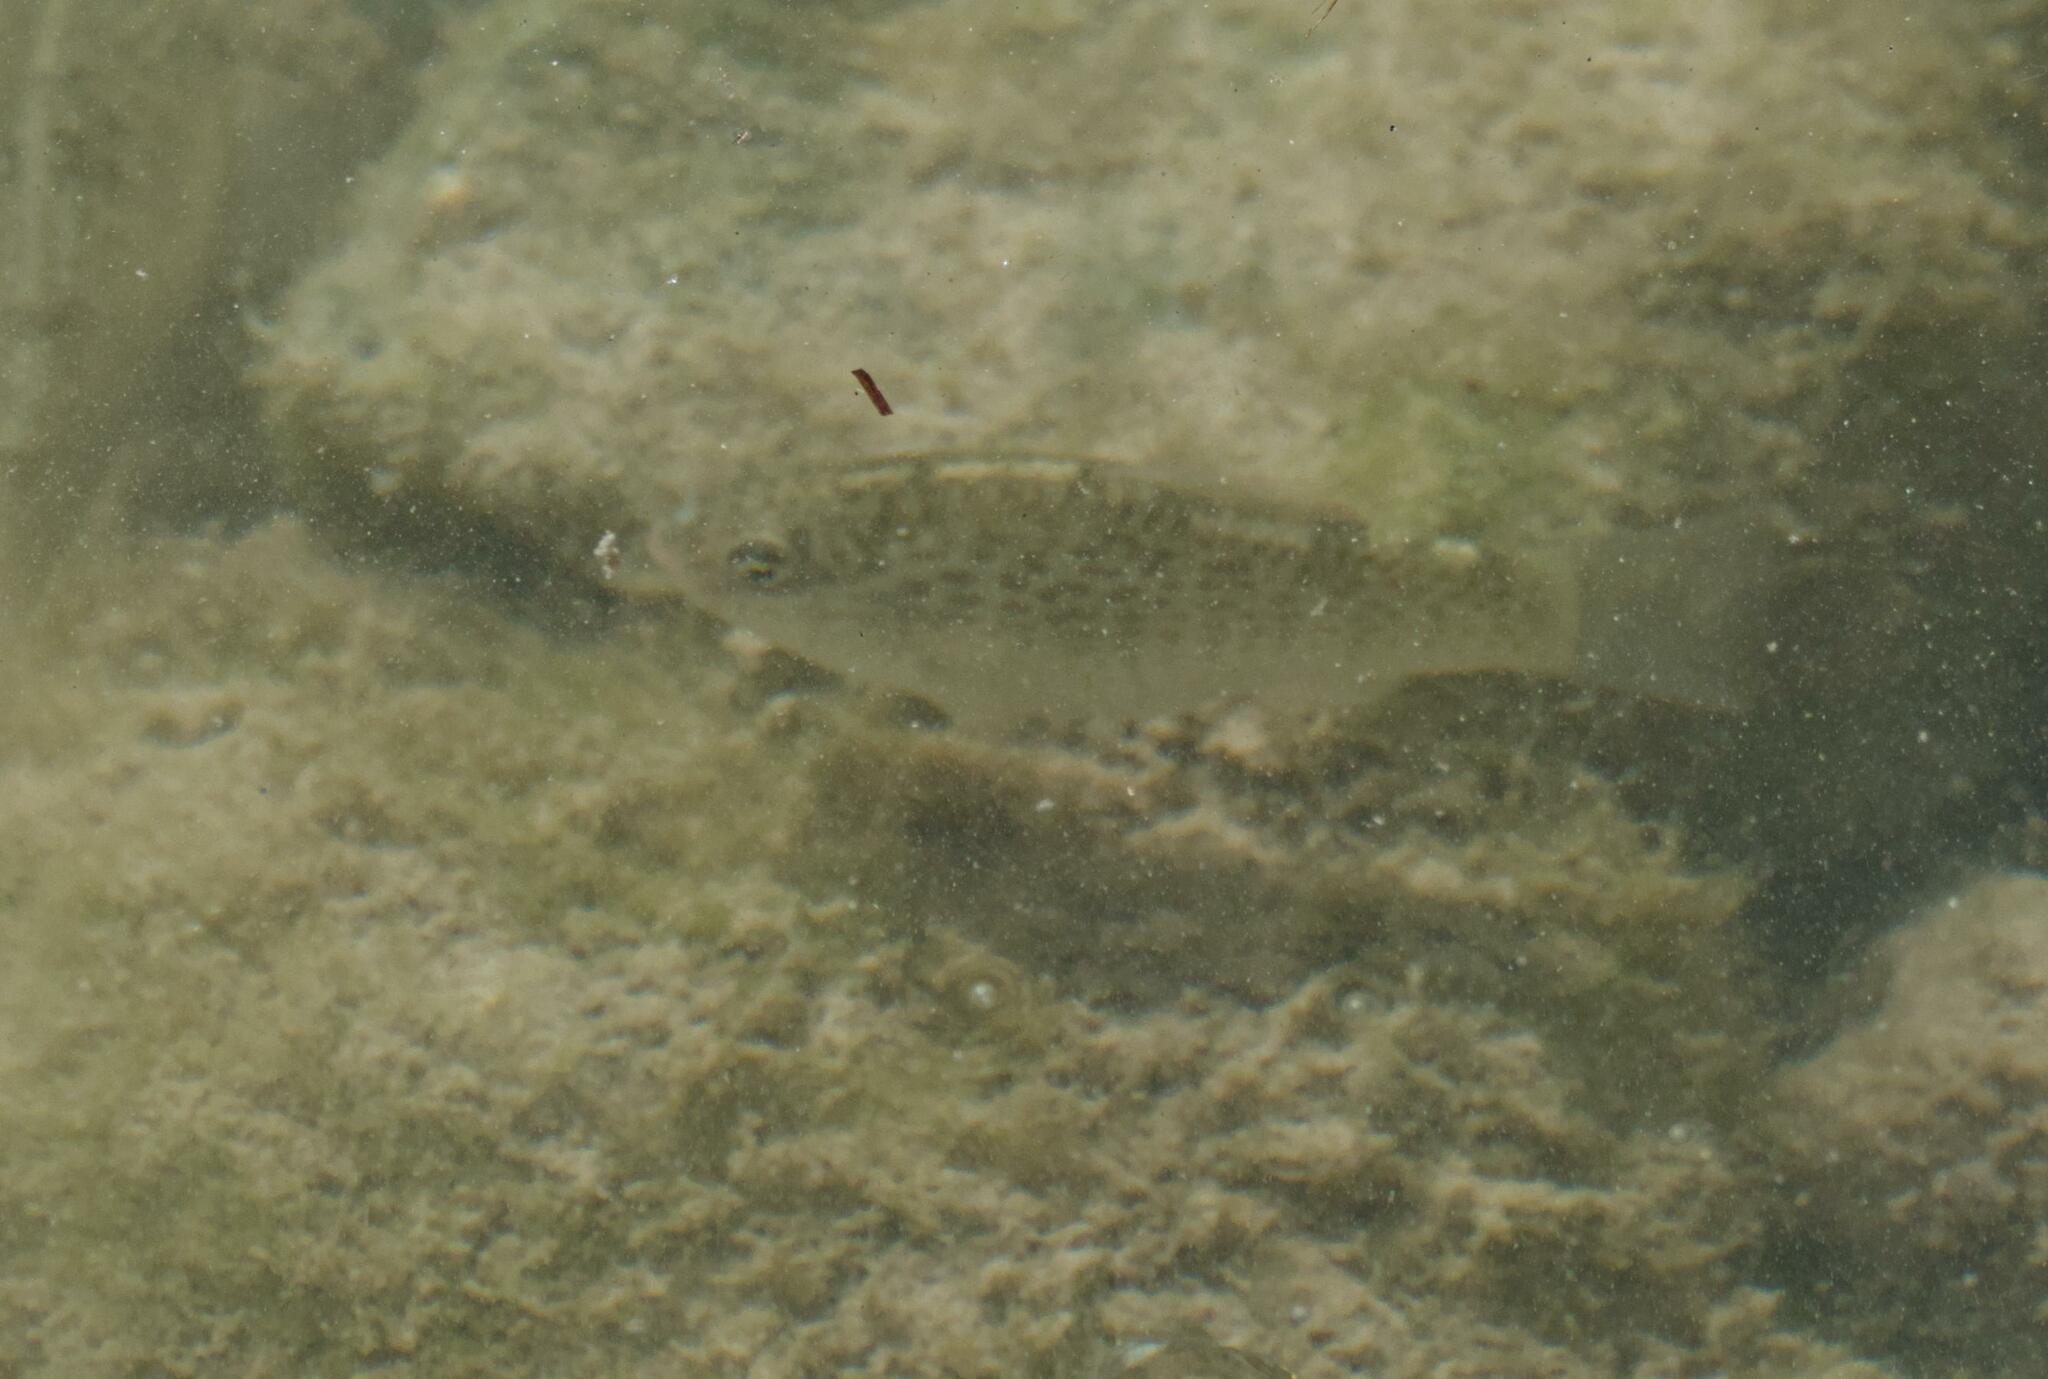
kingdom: Animalia
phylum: Chordata
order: Cyprinodontiformes
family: Cyprinodontidae
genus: Floridichthys
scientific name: Floridichthys polyommus
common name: Ocellated killifish
